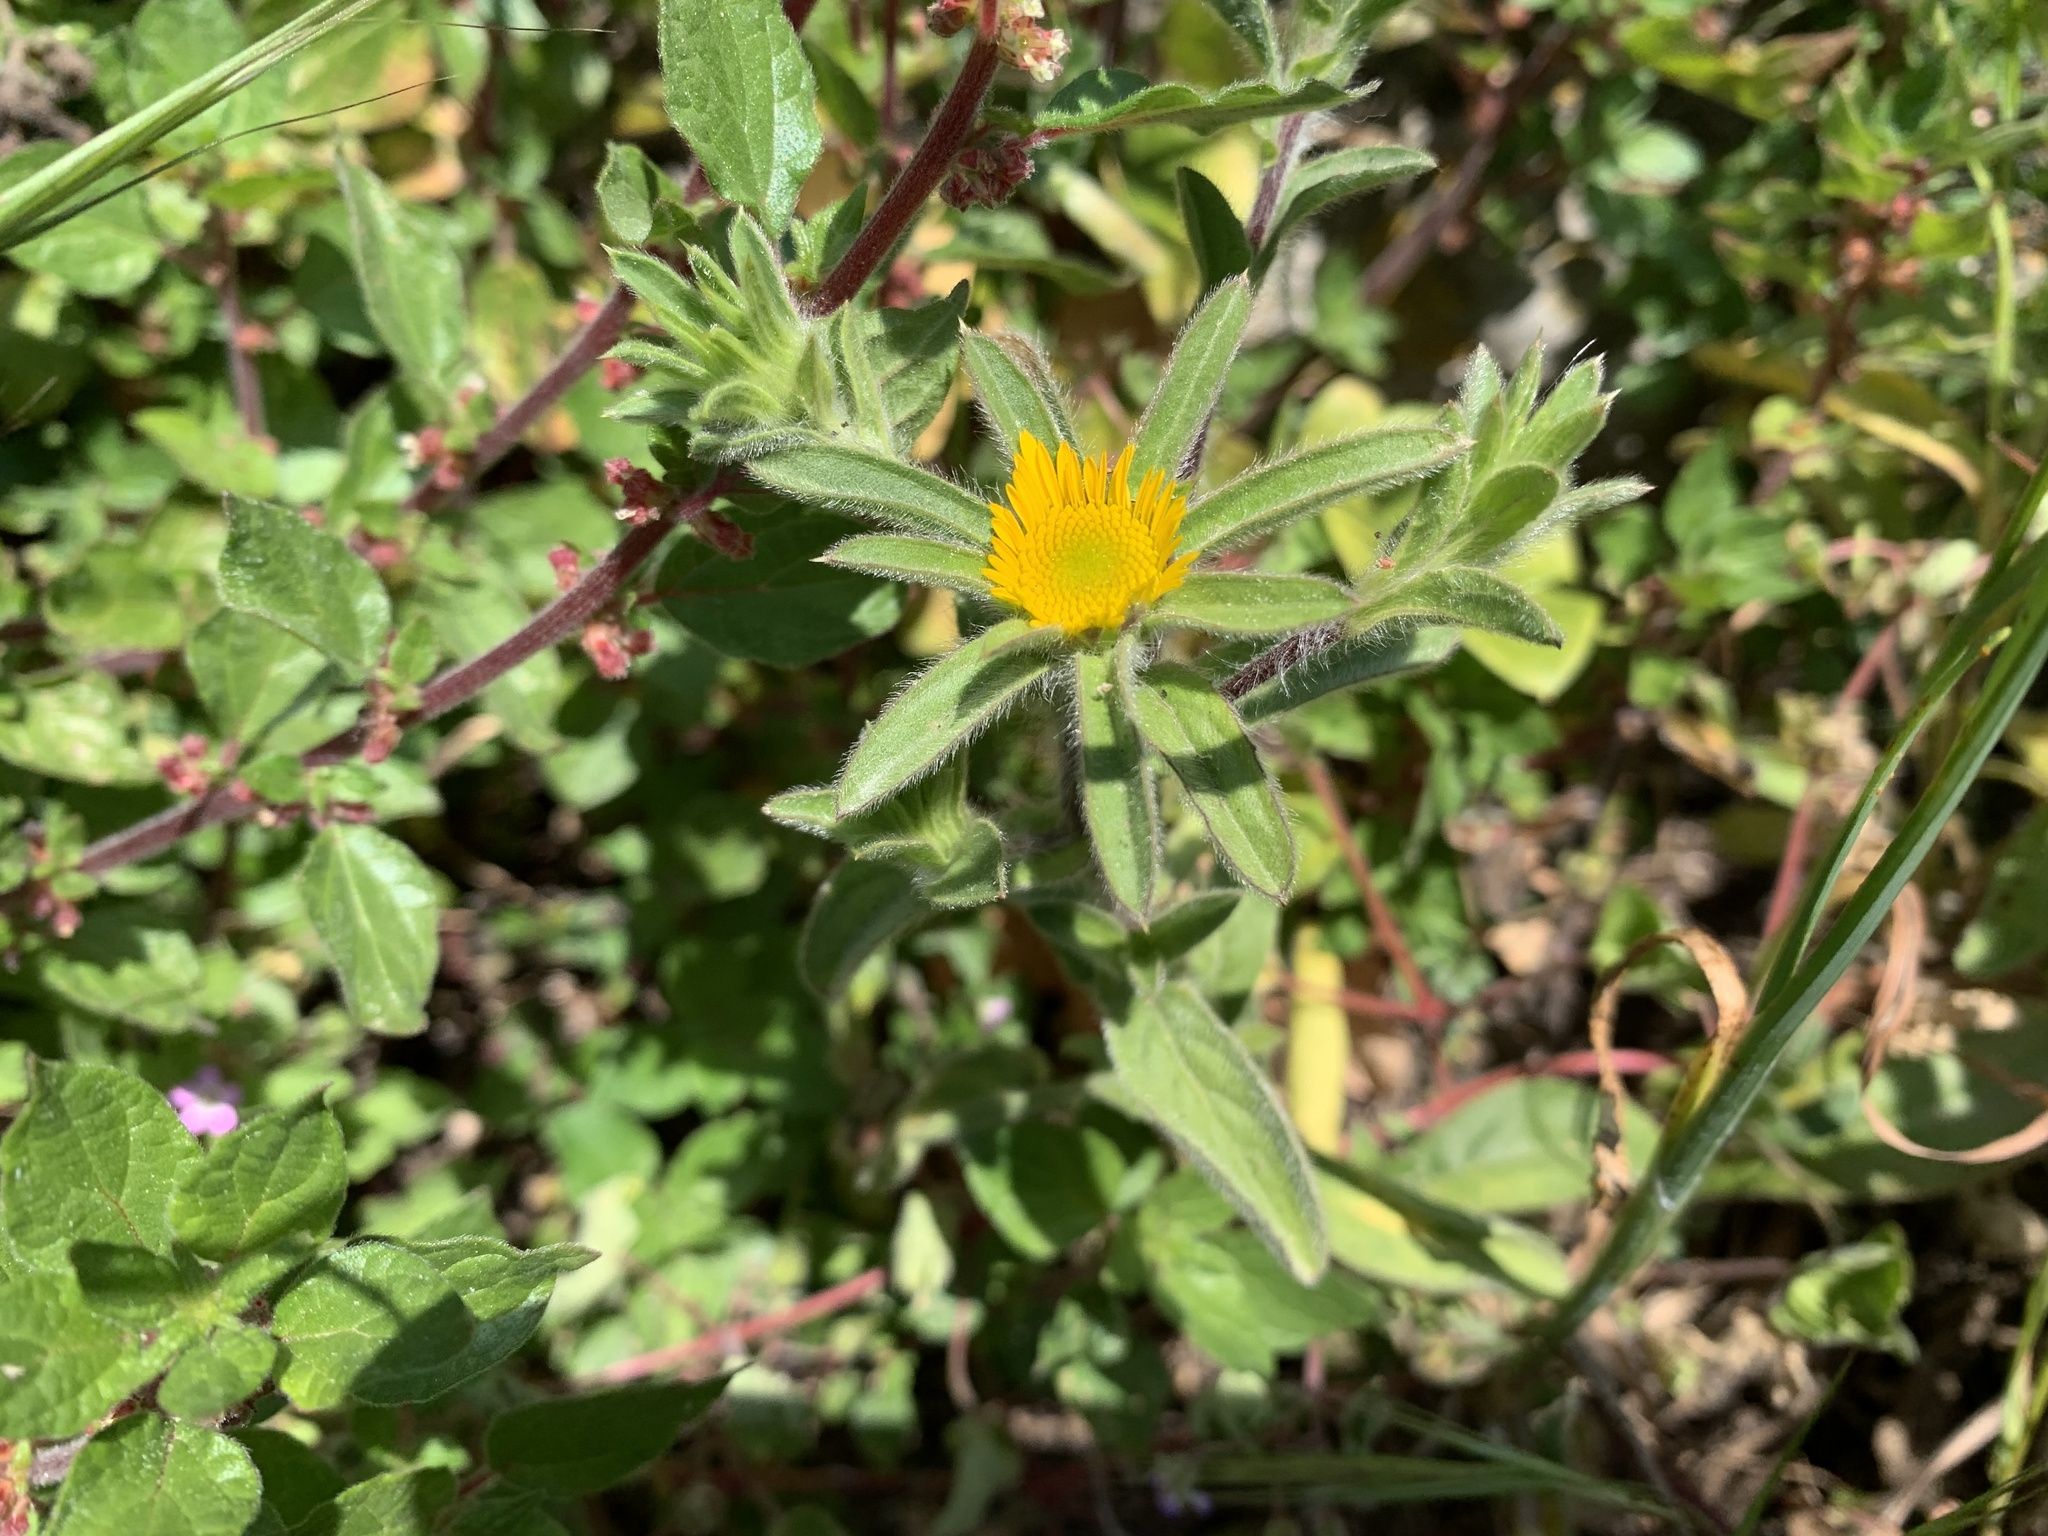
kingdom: Plantae
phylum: Tracheophyta
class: Magnoliopsida
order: Asterales
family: Asteraceae
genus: Pallenis
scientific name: Pallenis spinosa
